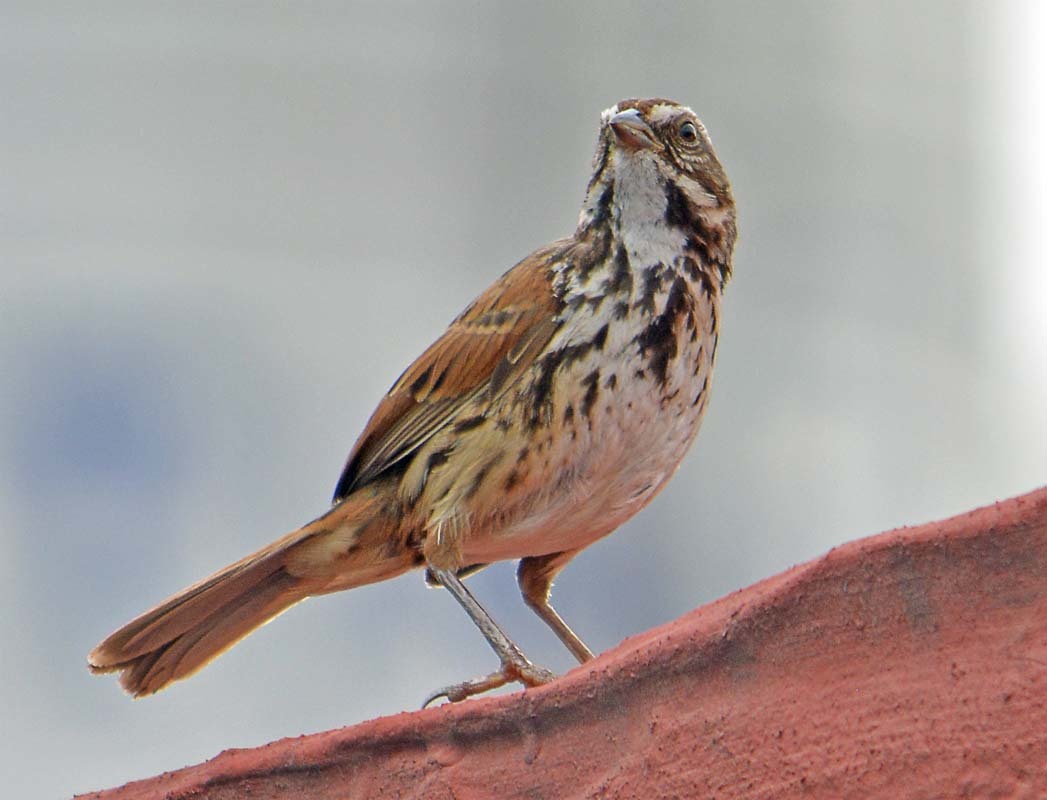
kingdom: Animalia
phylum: Chordata
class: Aves
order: Passeriformes
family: Passerellidae
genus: Melospiza
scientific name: Melospiza melodia
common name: Song sparrow
